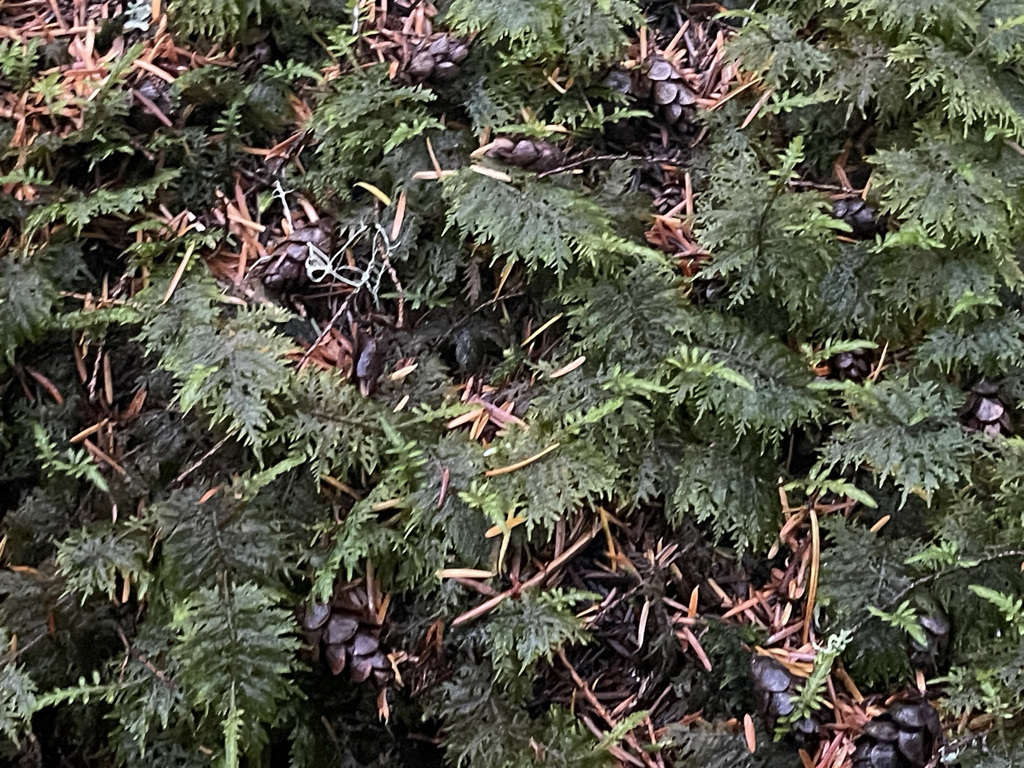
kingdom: Plantae
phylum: Bryophyta
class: Bryopsida
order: Hypnales
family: Hylocomiaceae
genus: Hylocomium
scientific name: Hylocomium splendens
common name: Stairstep moss
